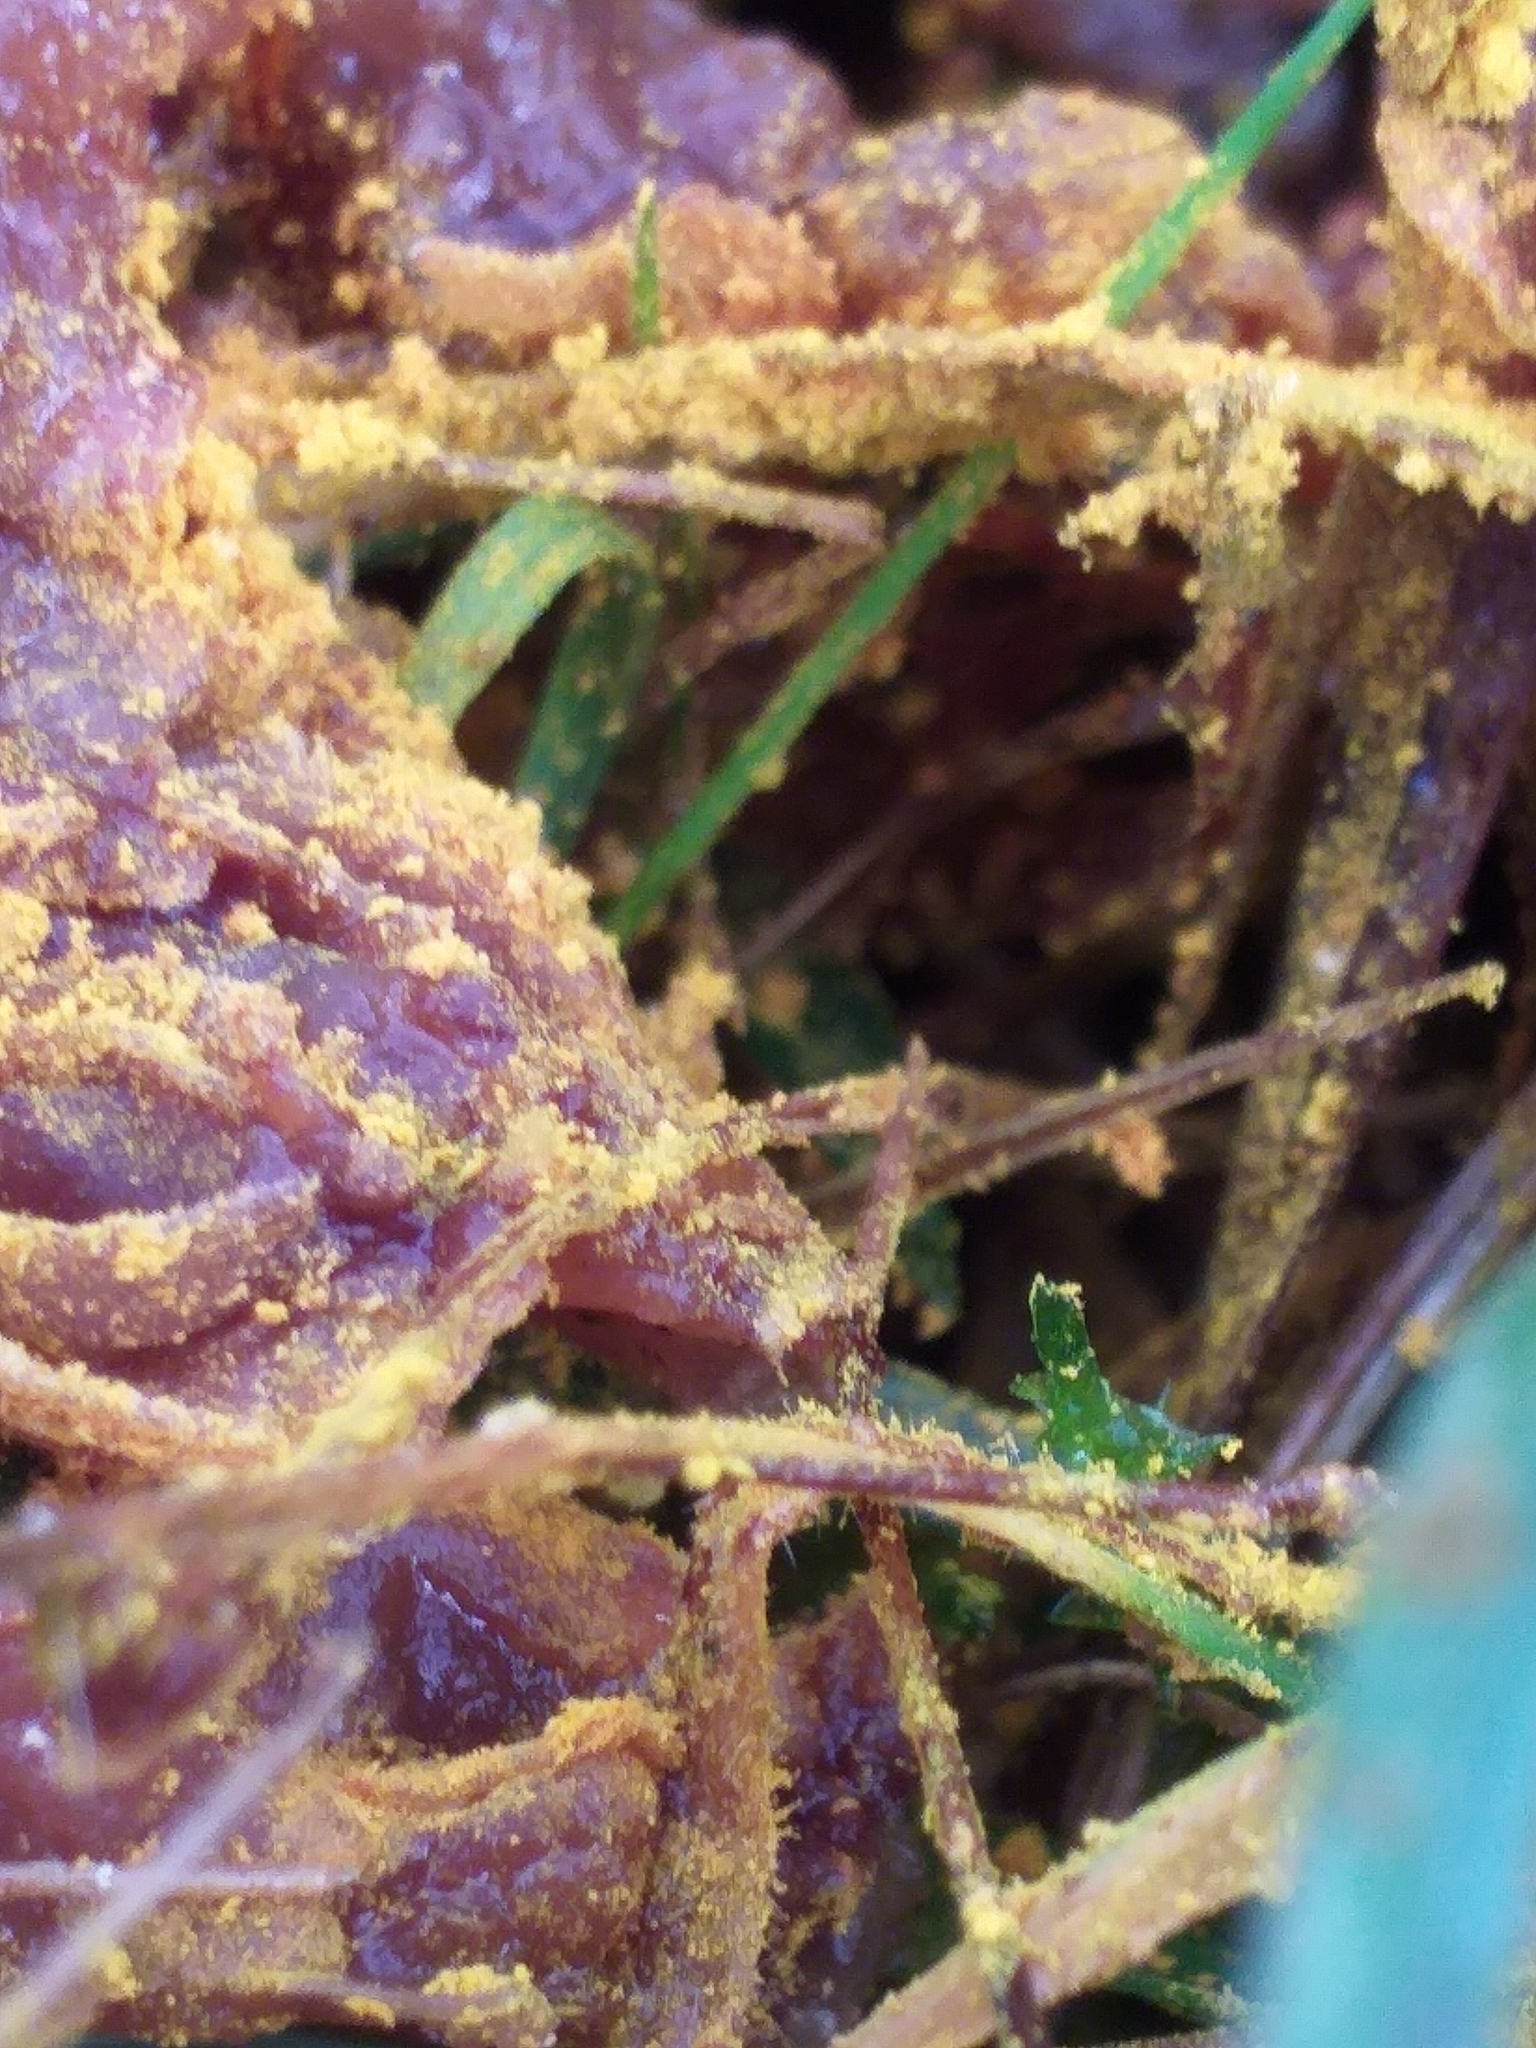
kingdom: Protozoa
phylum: Mycetozoa
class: Myxomycetes
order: Physarales
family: Physaraceae
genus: Fuligo
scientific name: Fuligo septica
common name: Dog vomit slime mold
